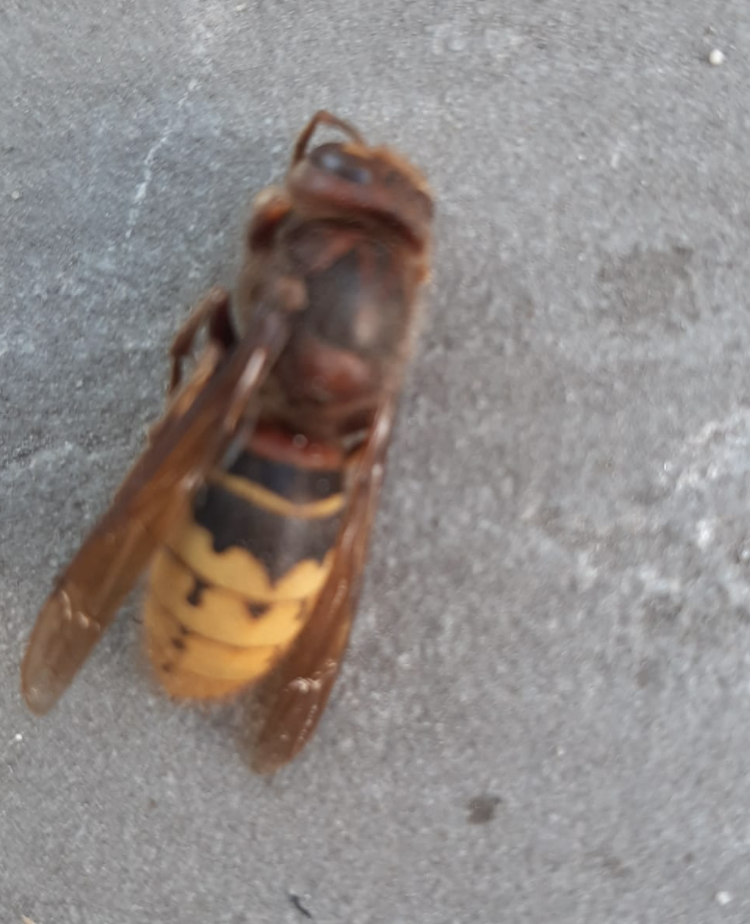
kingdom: Animalia
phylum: Arthropoda
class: Insecta
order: Hymenoptera
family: Vespidae
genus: Vespa
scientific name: Vespa crabro
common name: Hornet
